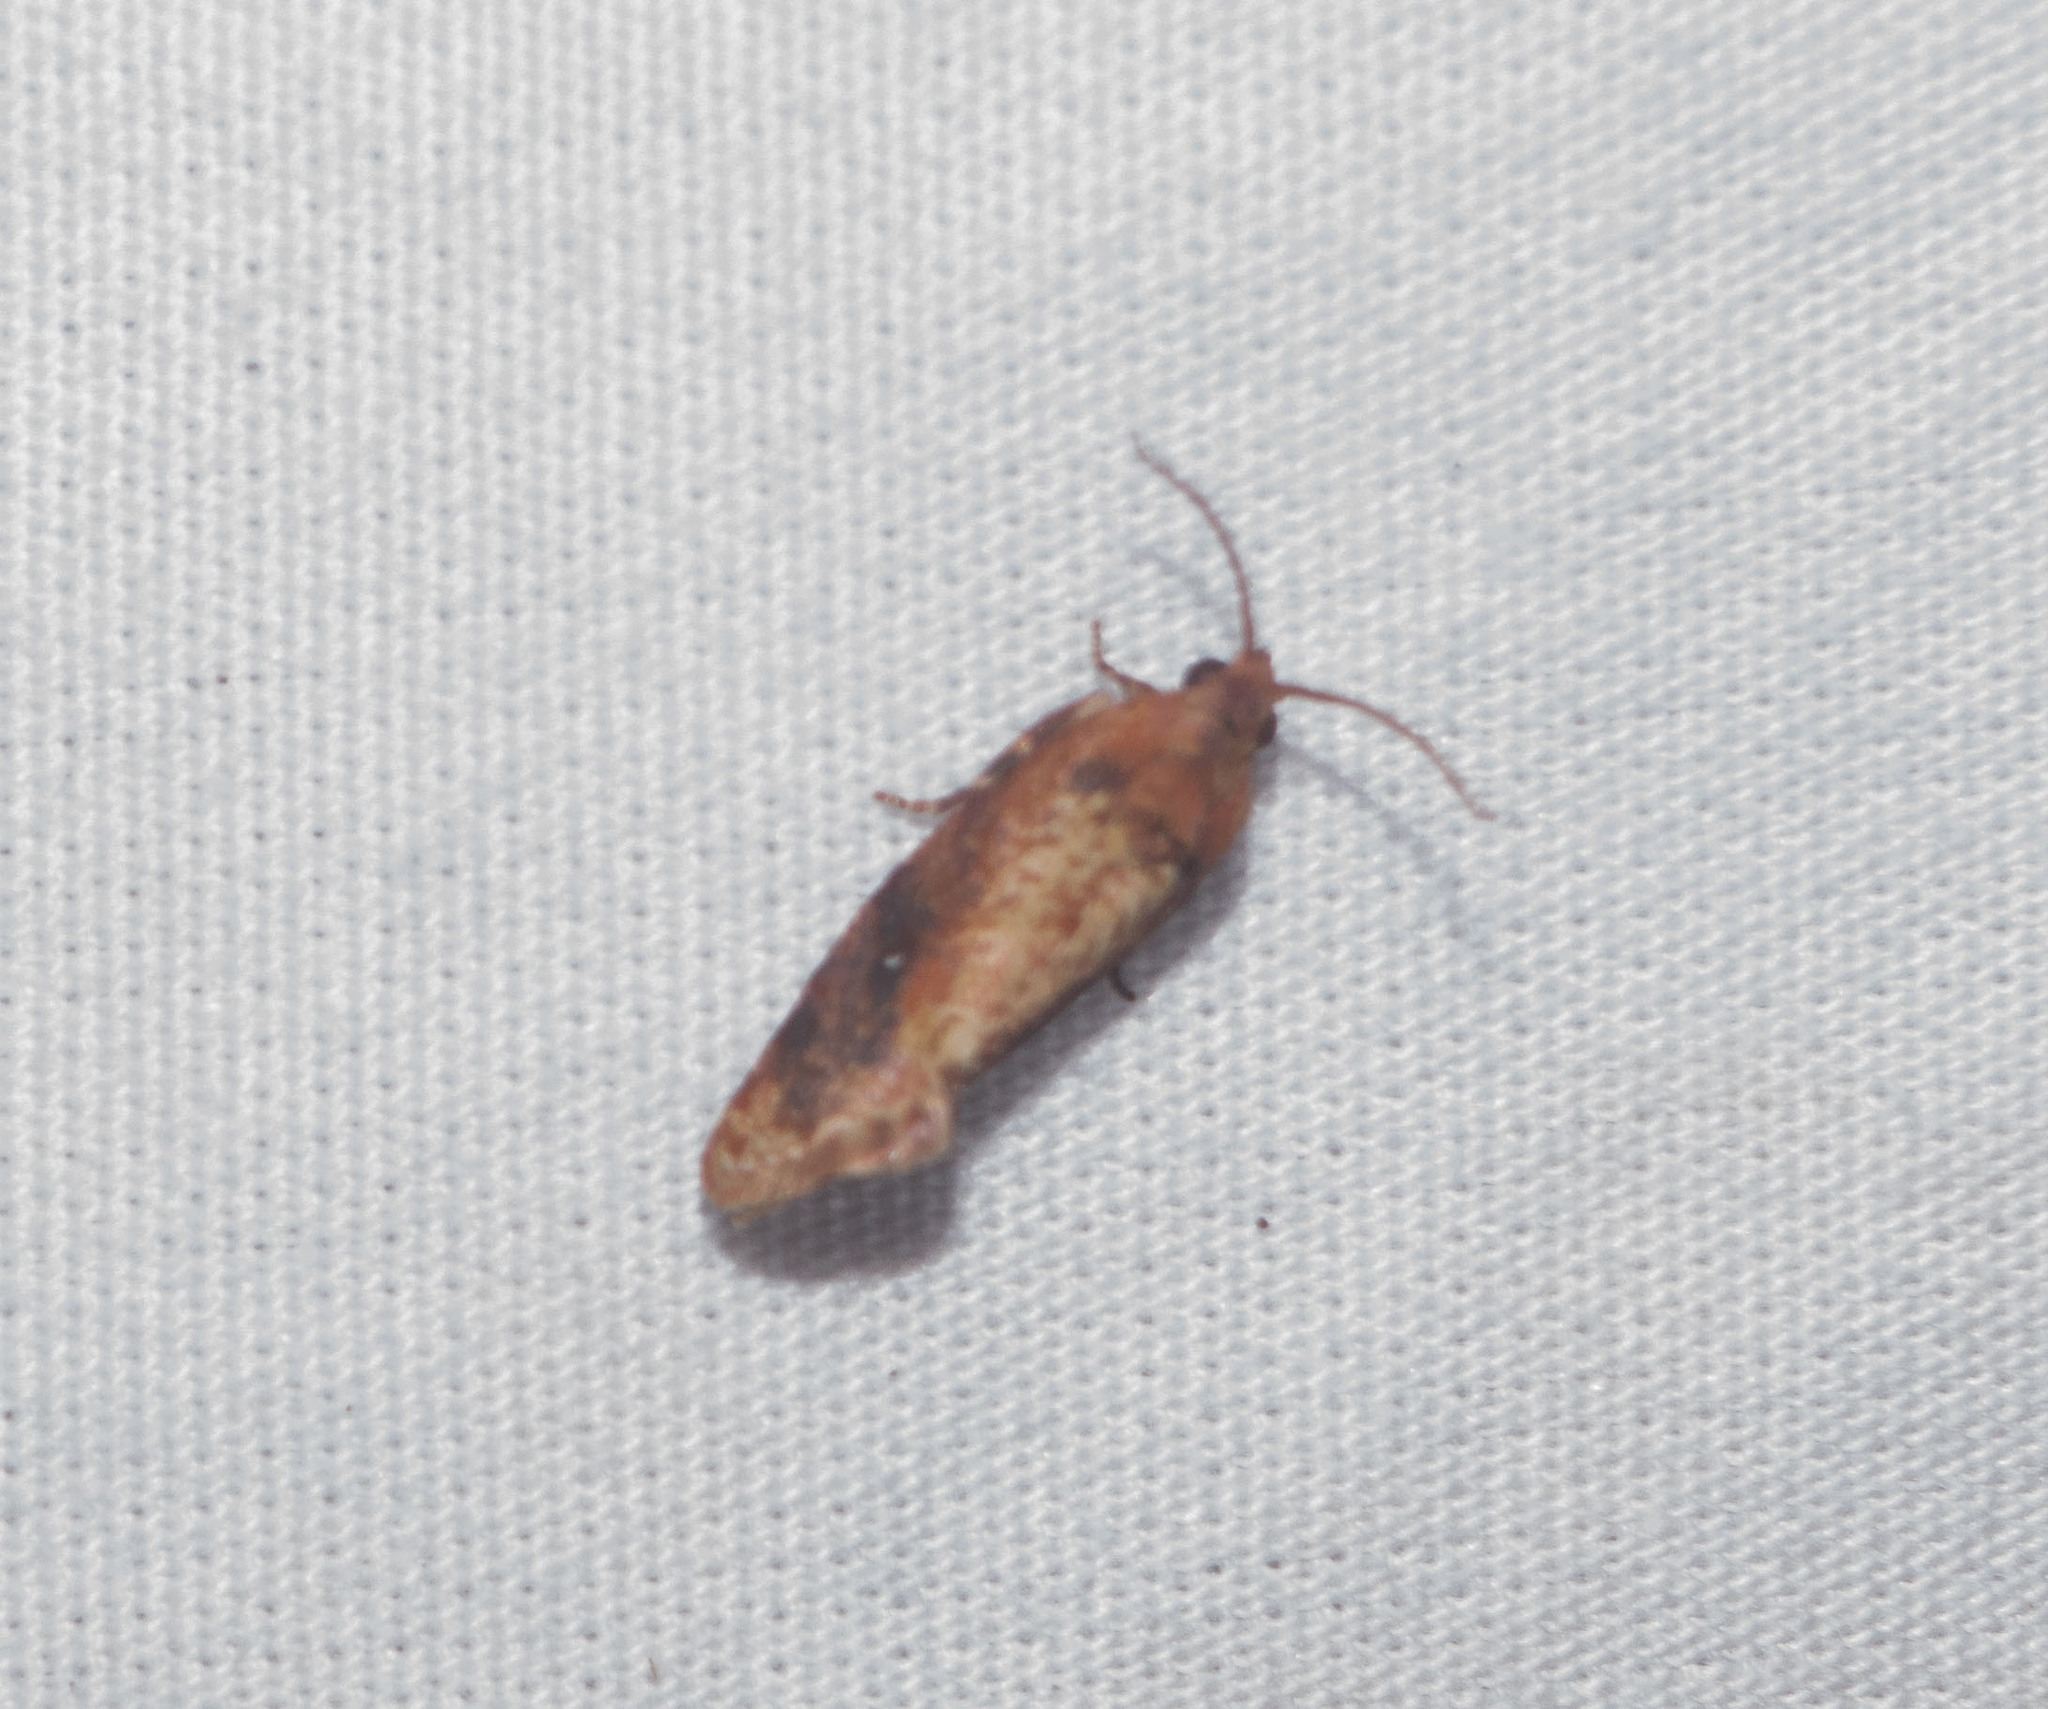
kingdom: Animalia
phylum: Arthropoda
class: Insecta
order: Lepidoptera
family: Tortricidae
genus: Cryptophlebia
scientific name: Cryptophlebia illepida
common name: Moth
